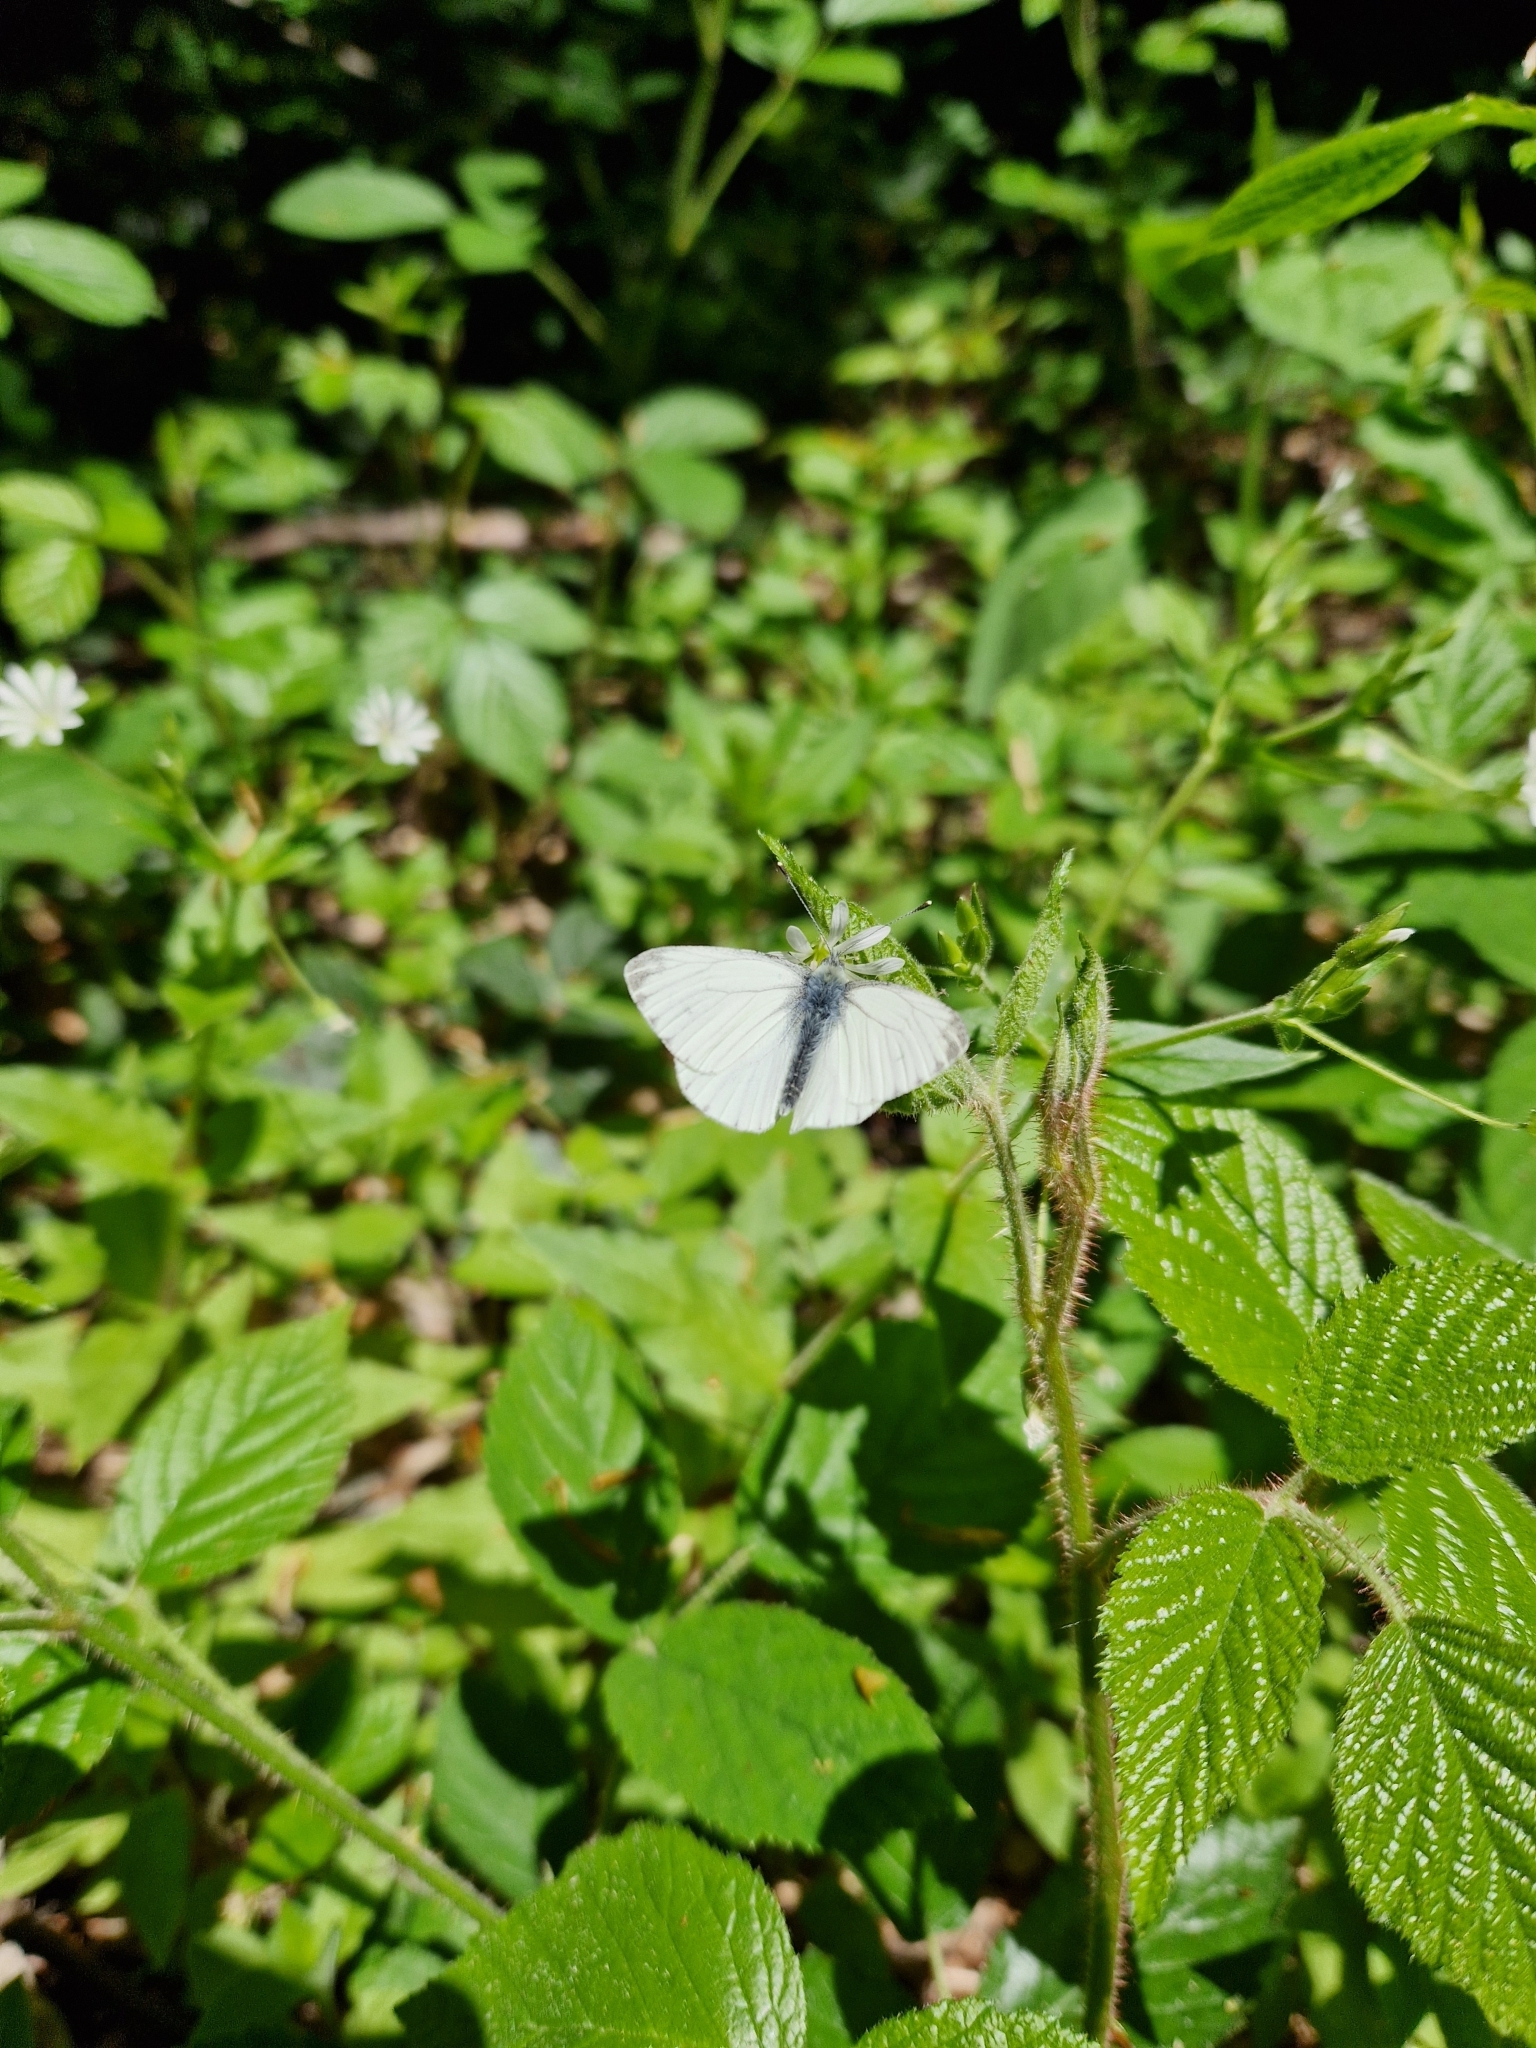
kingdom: Animalia
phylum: Arthropoda
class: Insecta
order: Lepidoptera
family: Pieridae
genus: Pieris
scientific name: Pieris napi
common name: Green-veined white
